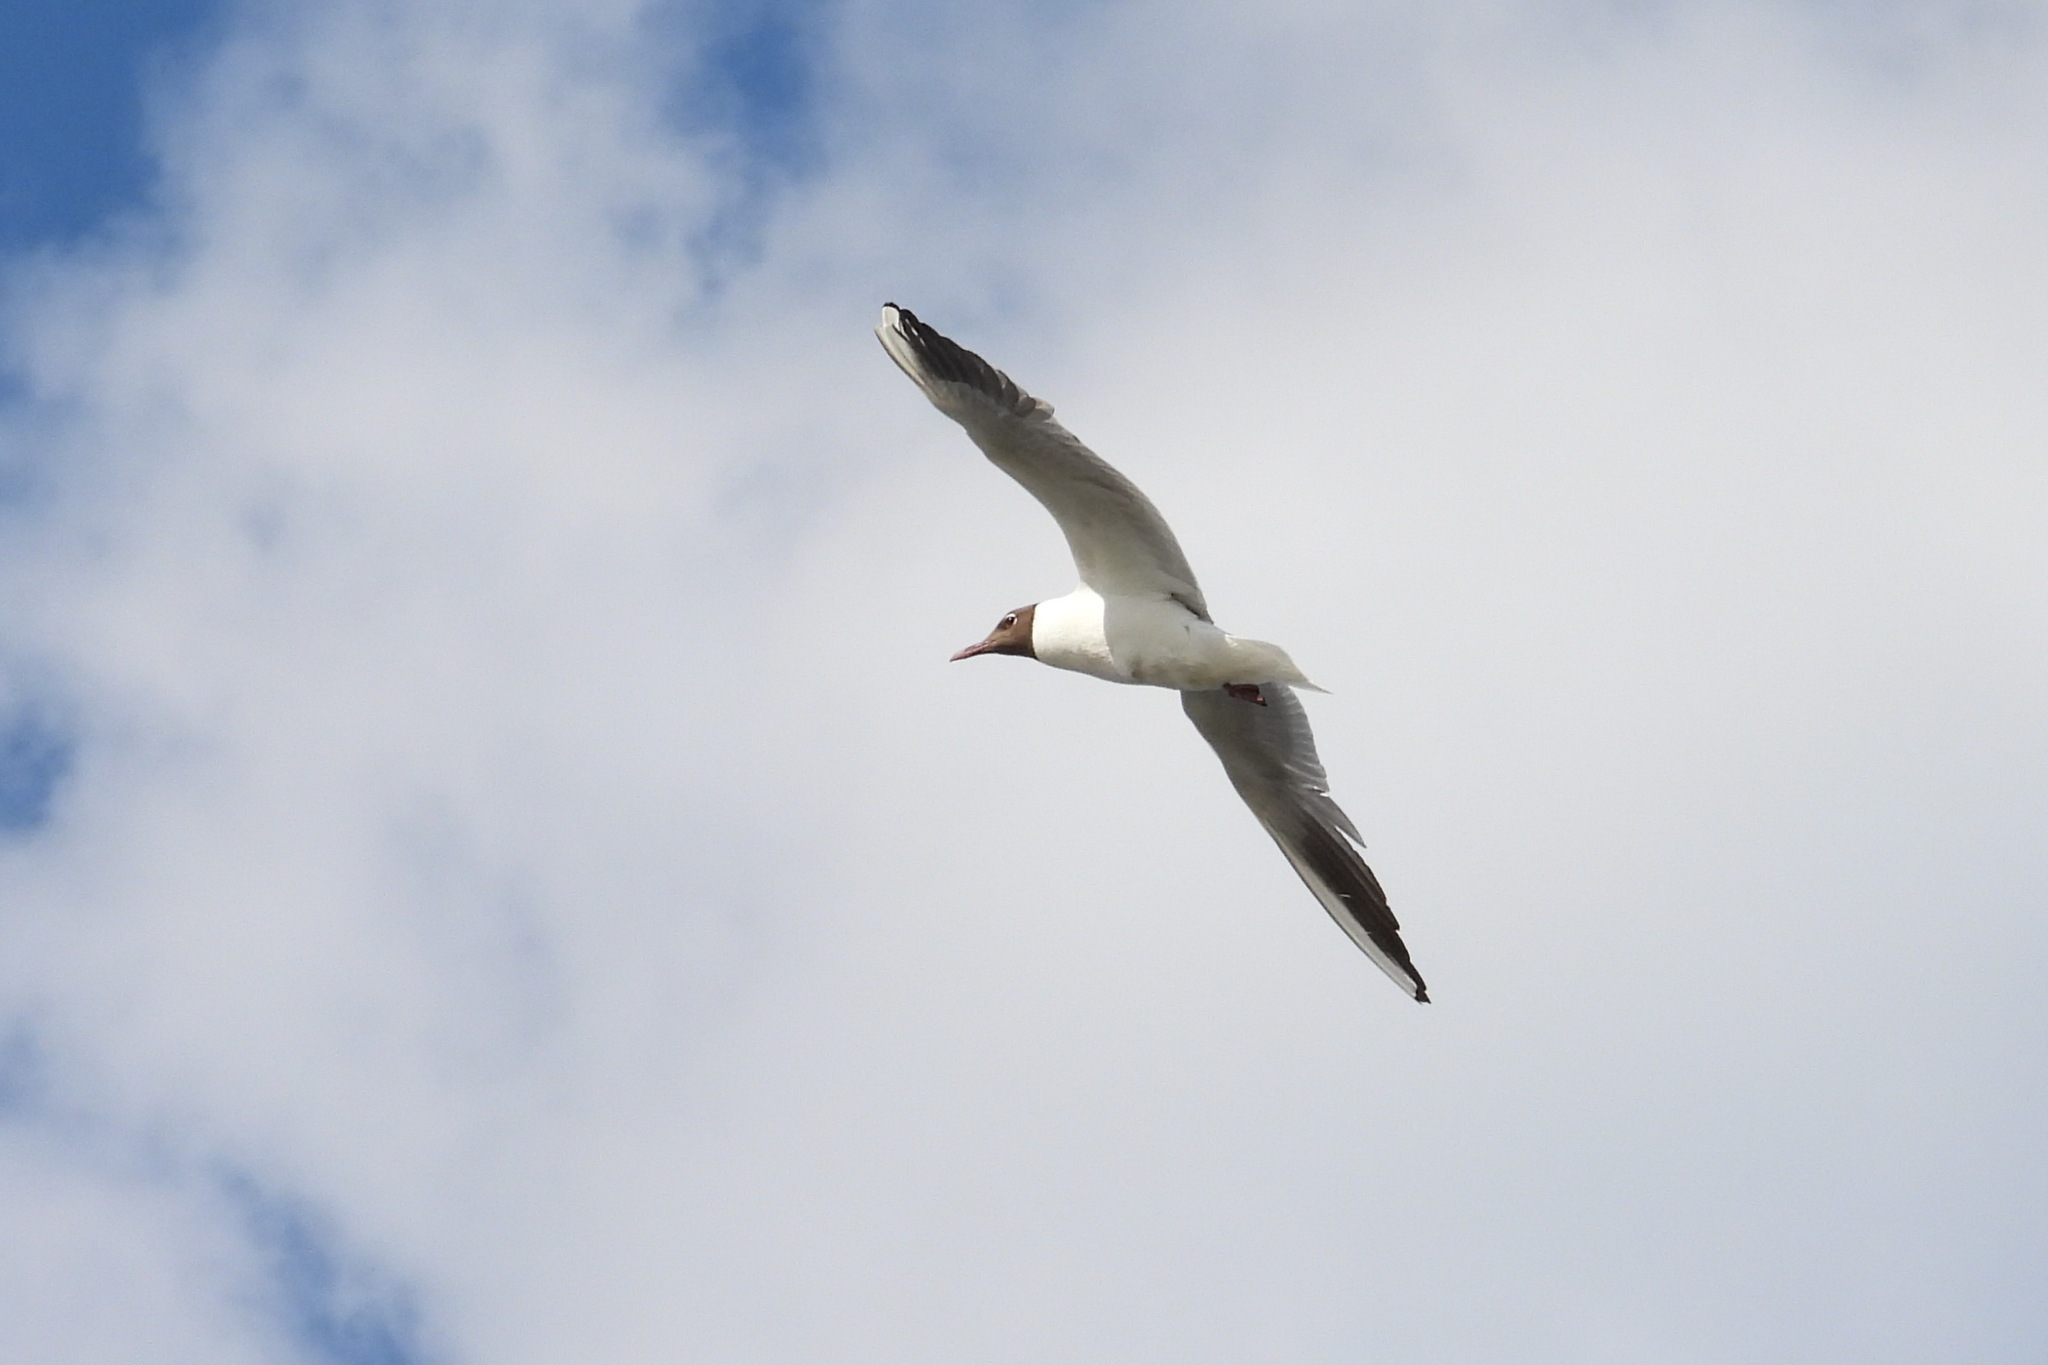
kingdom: Animalia
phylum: Chordata
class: Aves
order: Charadriiformes
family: Laridae
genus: Chroicocephalus
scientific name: Chroicocephalus ridibundus
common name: Black-headed gull
